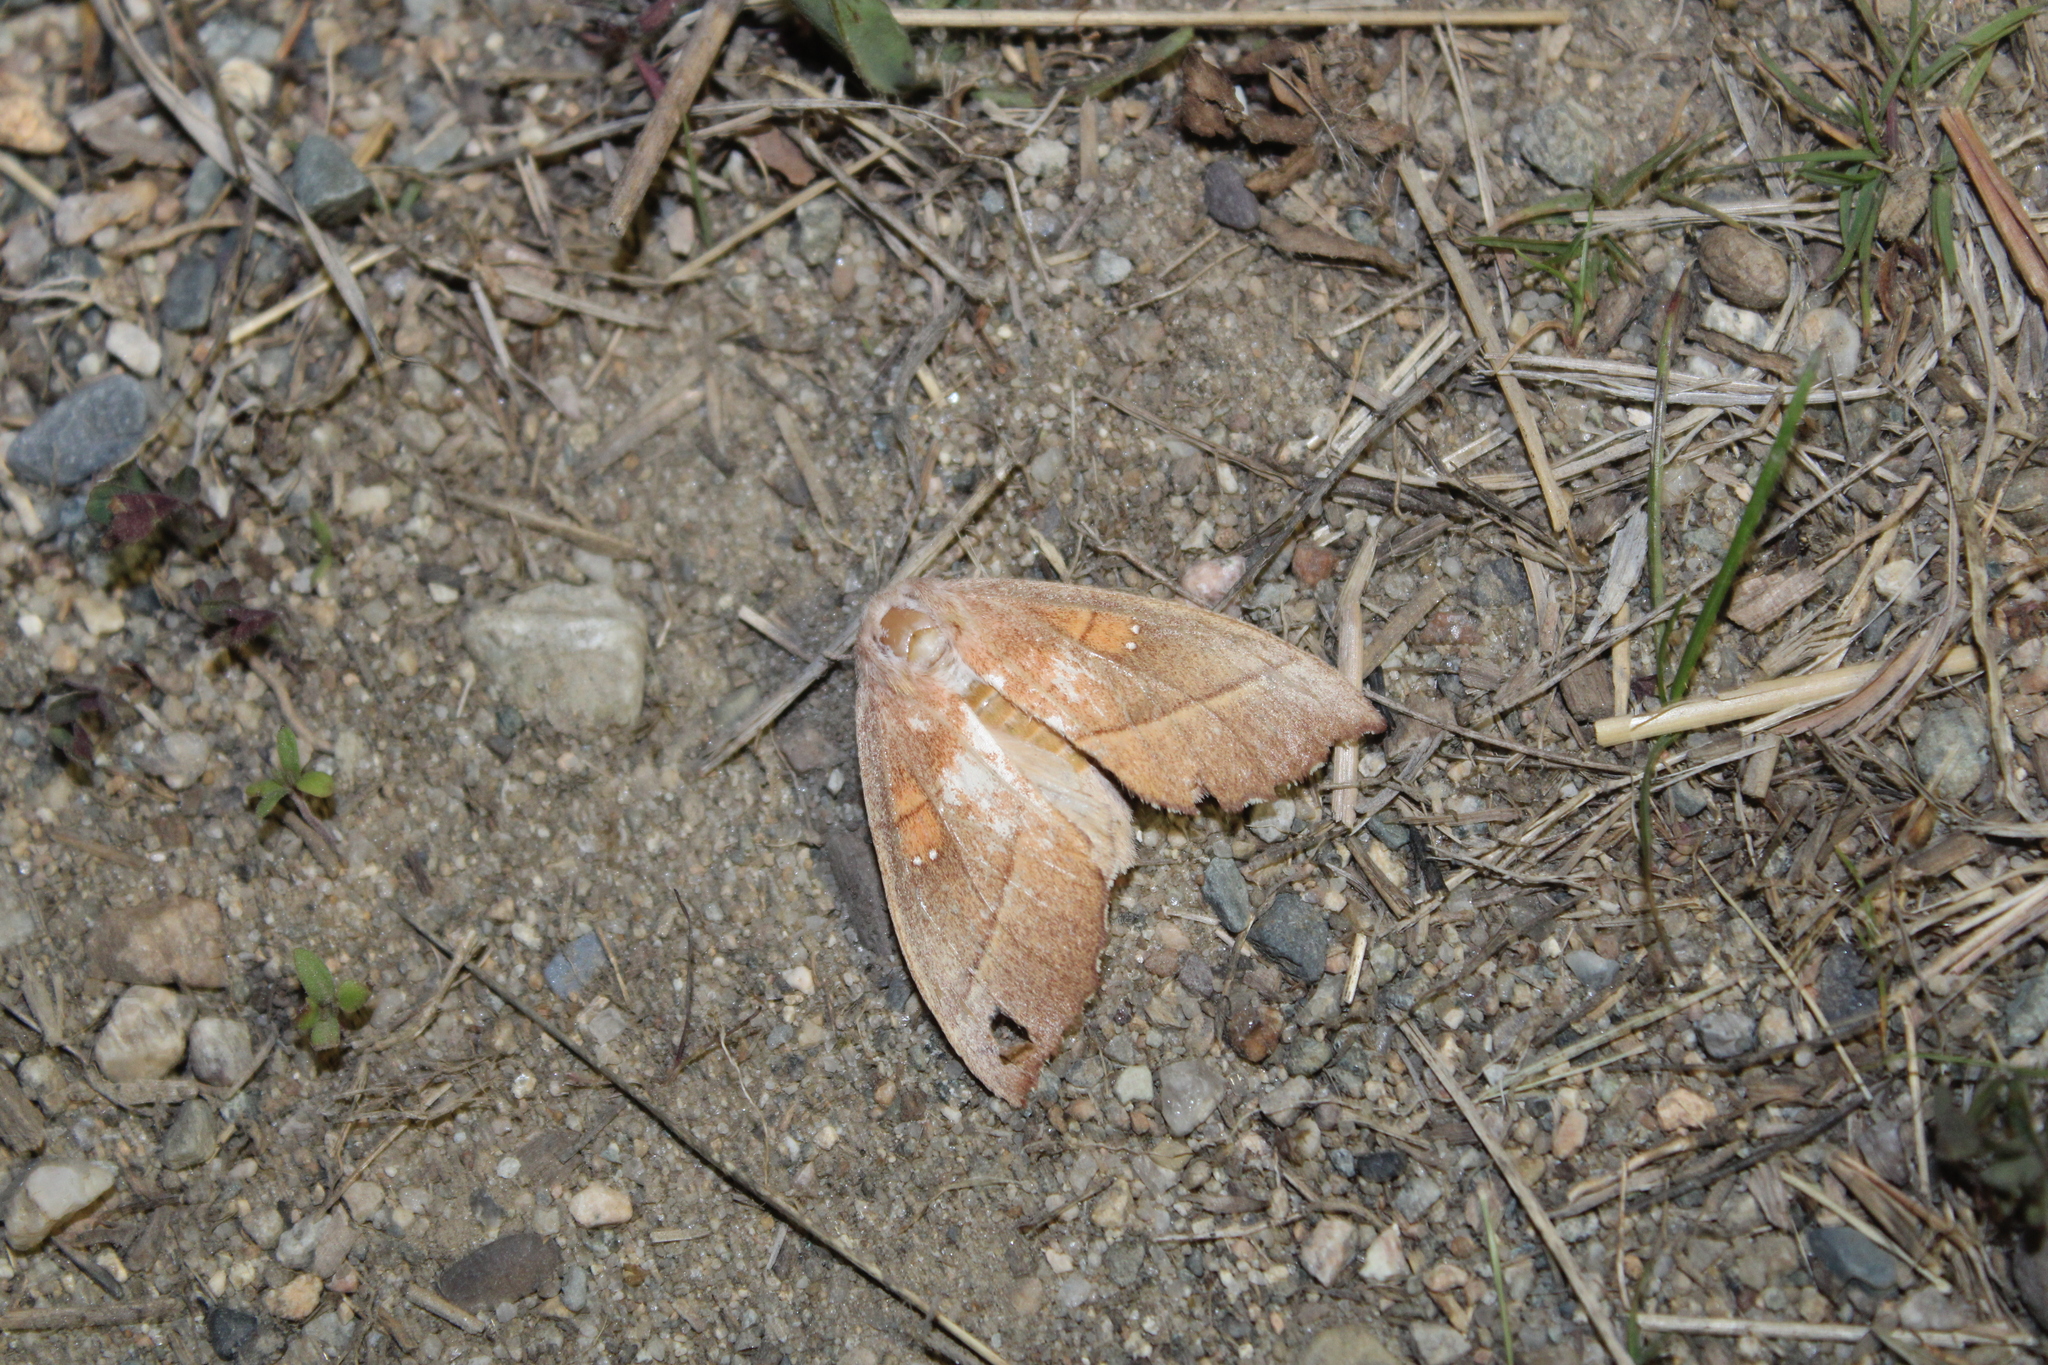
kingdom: Animalia
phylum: Arthropoda
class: Insecta
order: Lepidoptera
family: Notodontidae
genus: Nadata
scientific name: Nadata gibbosa
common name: White-dotted prominent
